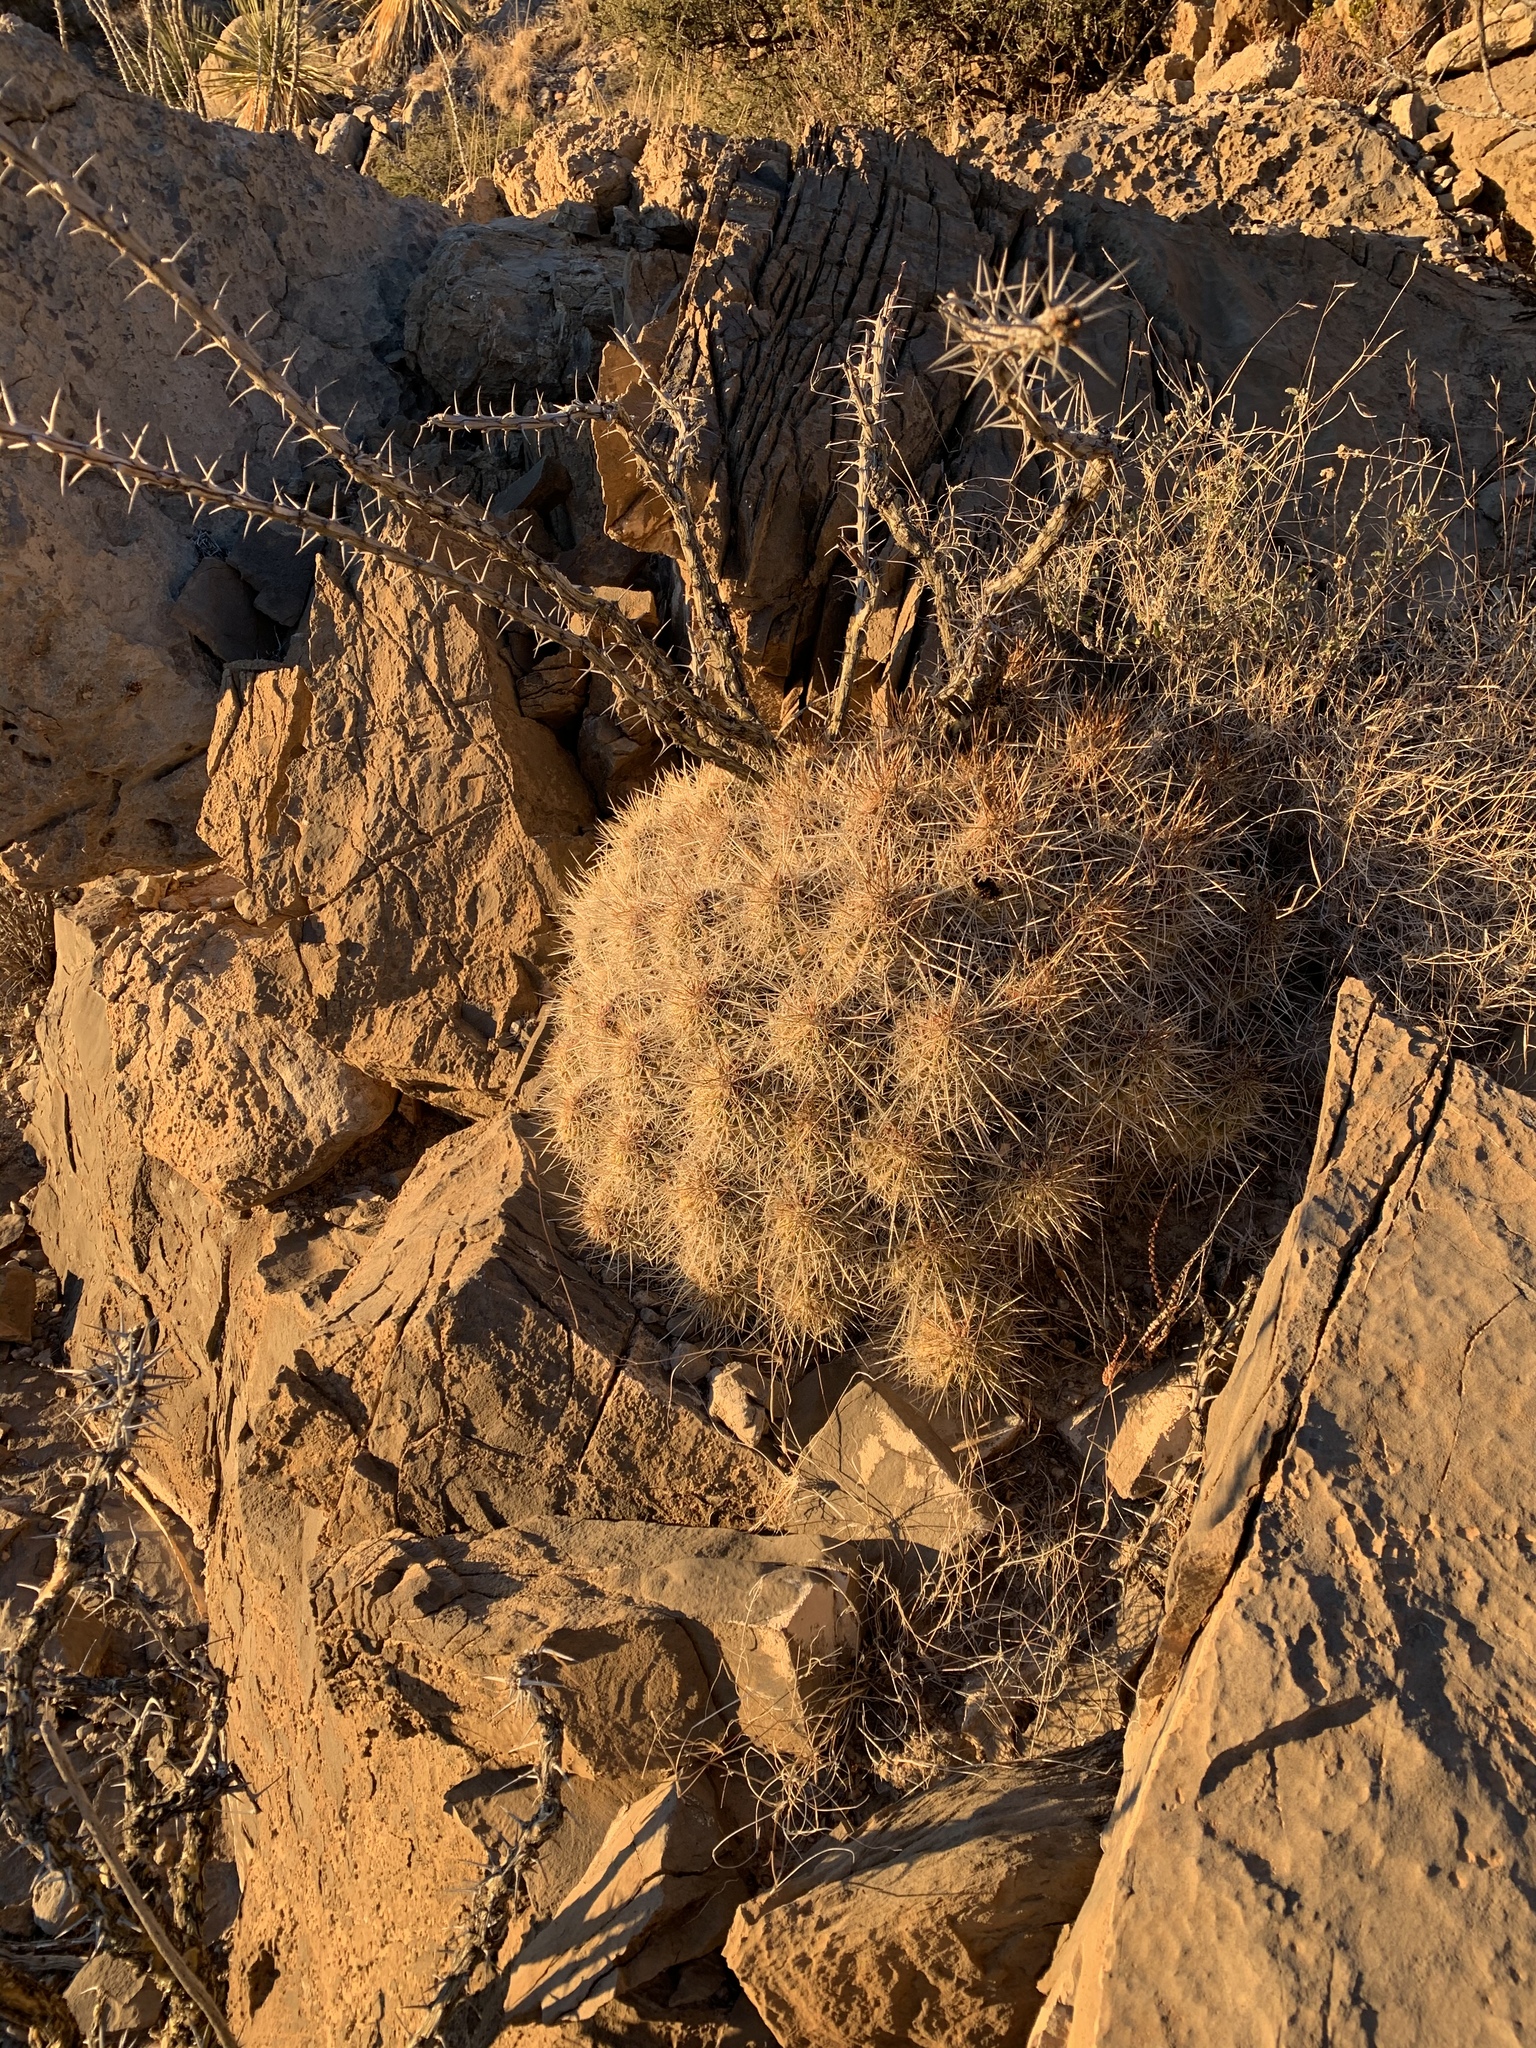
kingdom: Plantae
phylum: Tracheophyta
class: Magnoliopsida
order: Caryophyllales
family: Cactaceae
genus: Echinocereus
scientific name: Echinocereus stramineus
